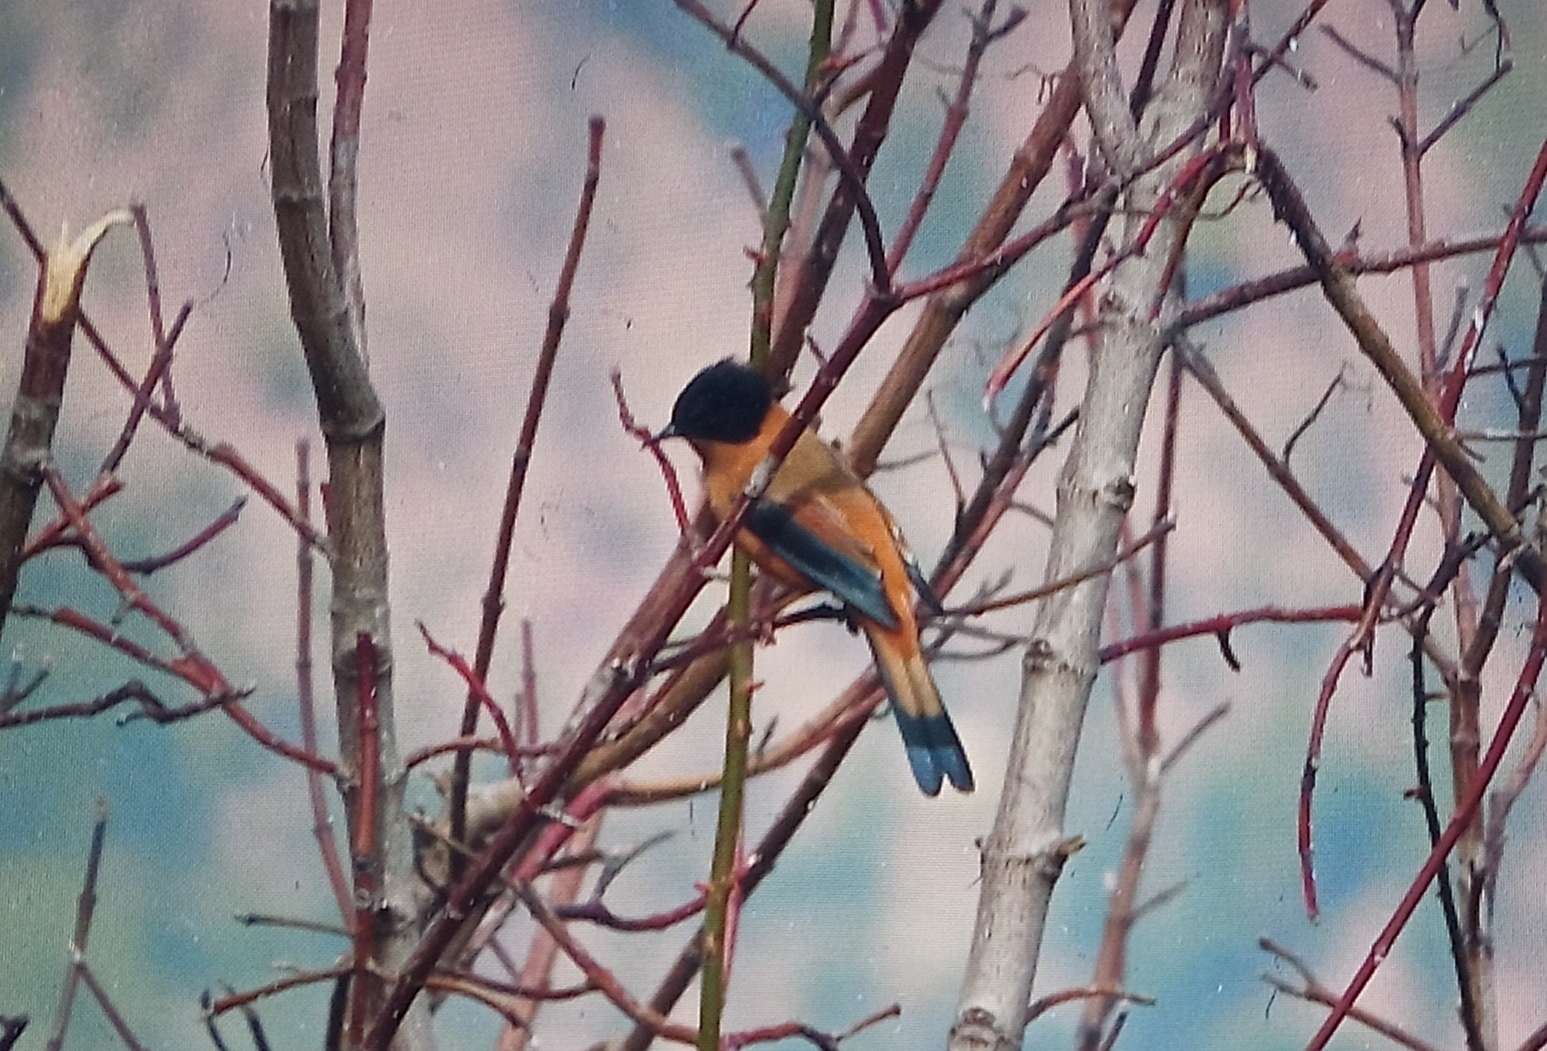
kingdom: Animalia
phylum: Chordata
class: Aves
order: Passeriformes
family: Leiothrichidae
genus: Heterophasia
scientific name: Heterophasia capistrata
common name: Rufous sibia
